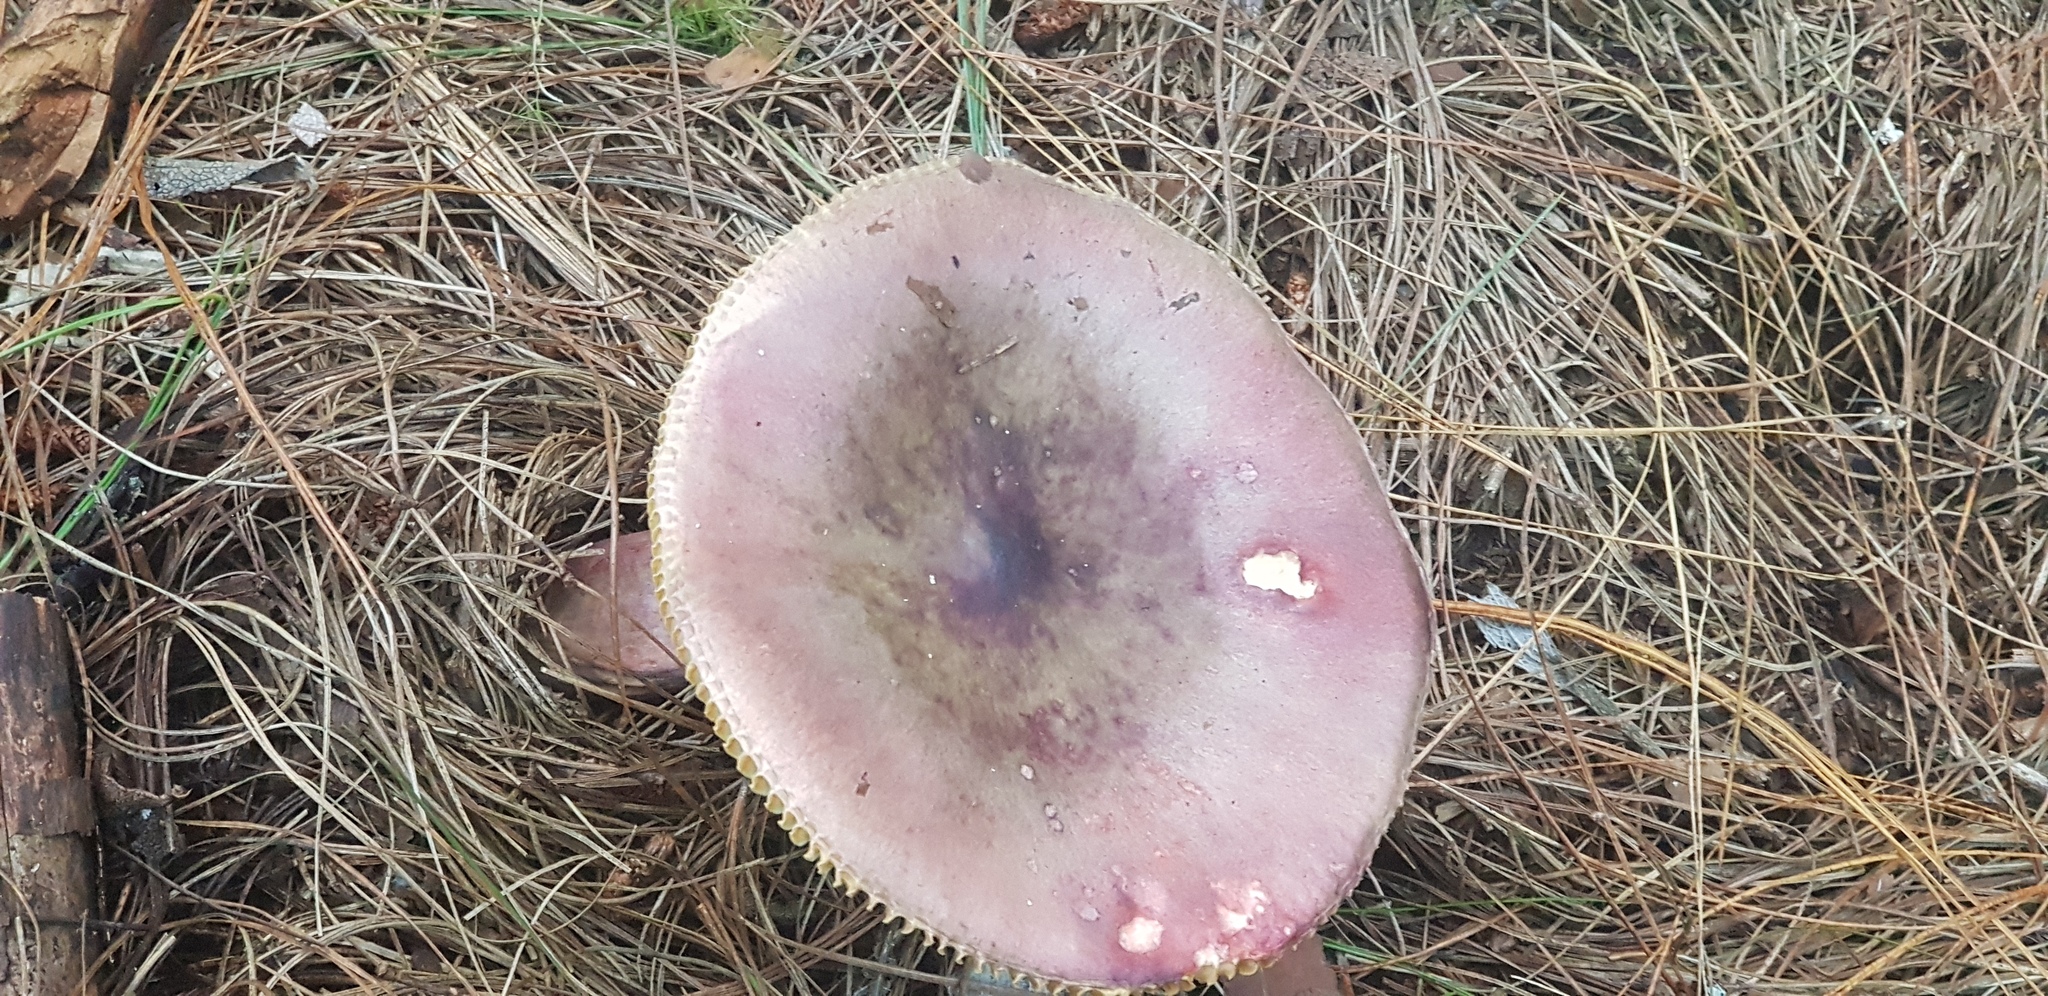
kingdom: Fungi
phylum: Basidiomycota
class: Agaricomycetes
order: Russulales
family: Russulaceae
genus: Russula
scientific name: Russula sardonia
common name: Primrose brittlegill
